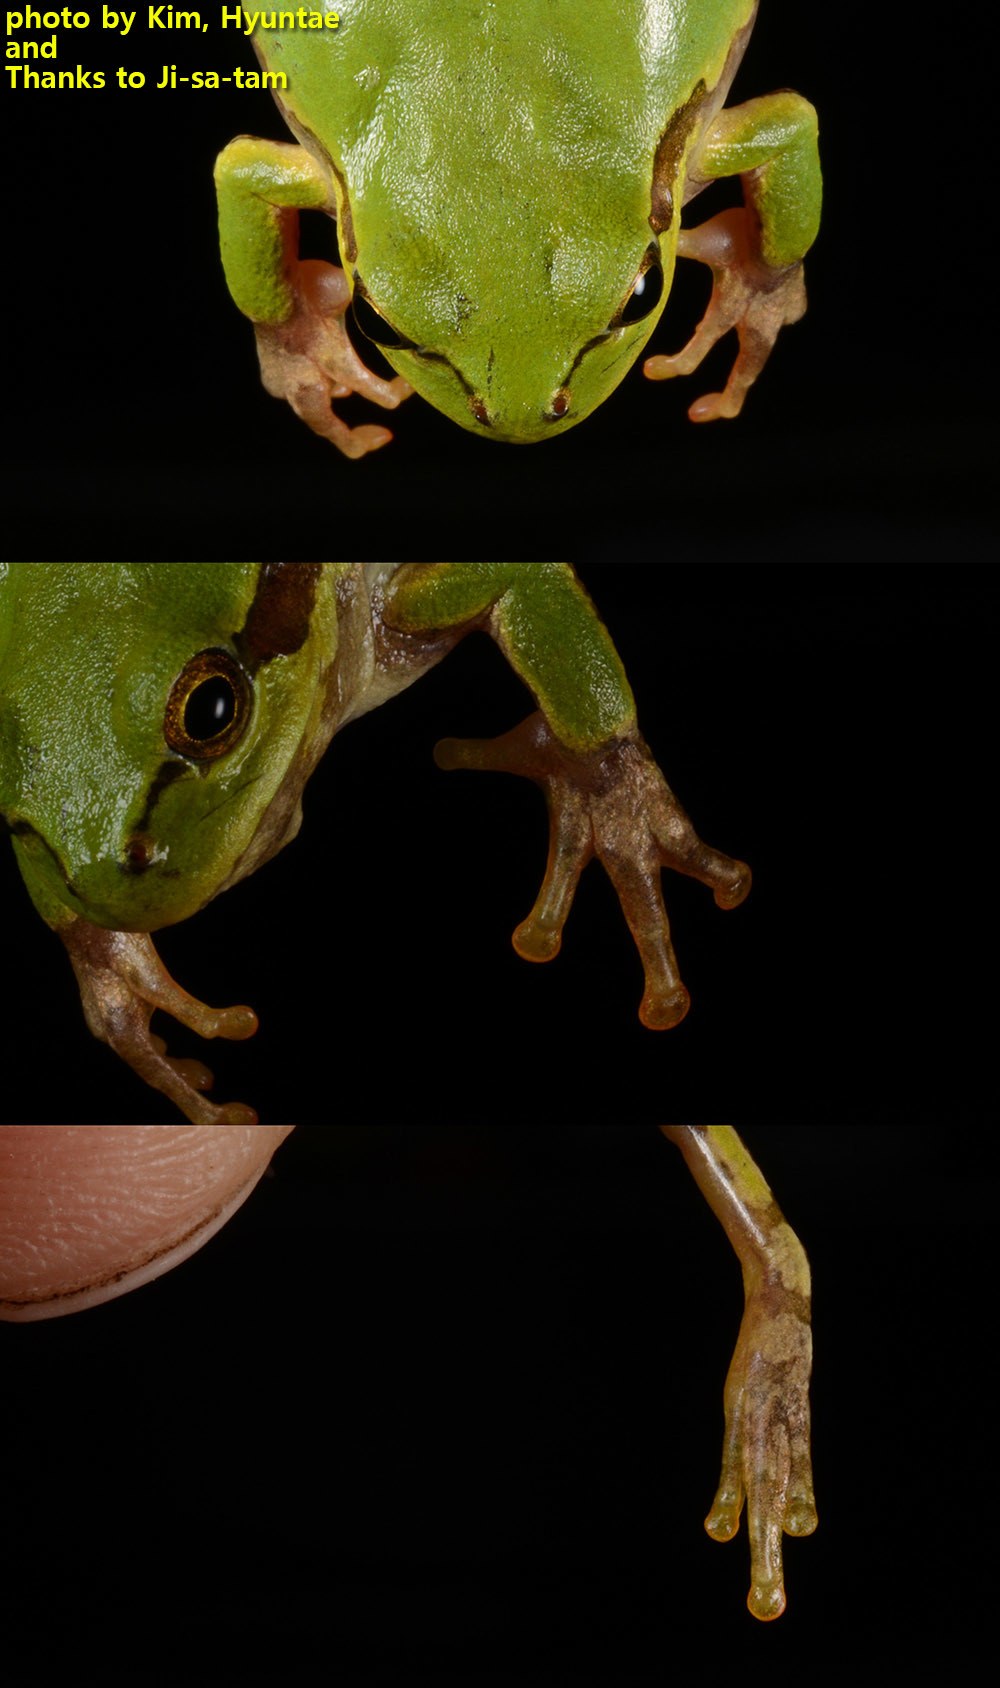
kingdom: Animalia
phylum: Chordata
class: Amphibia
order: Anura
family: Hylidae
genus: Dryophytes
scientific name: Dryophytes japonicus
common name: Japanese treefrog
